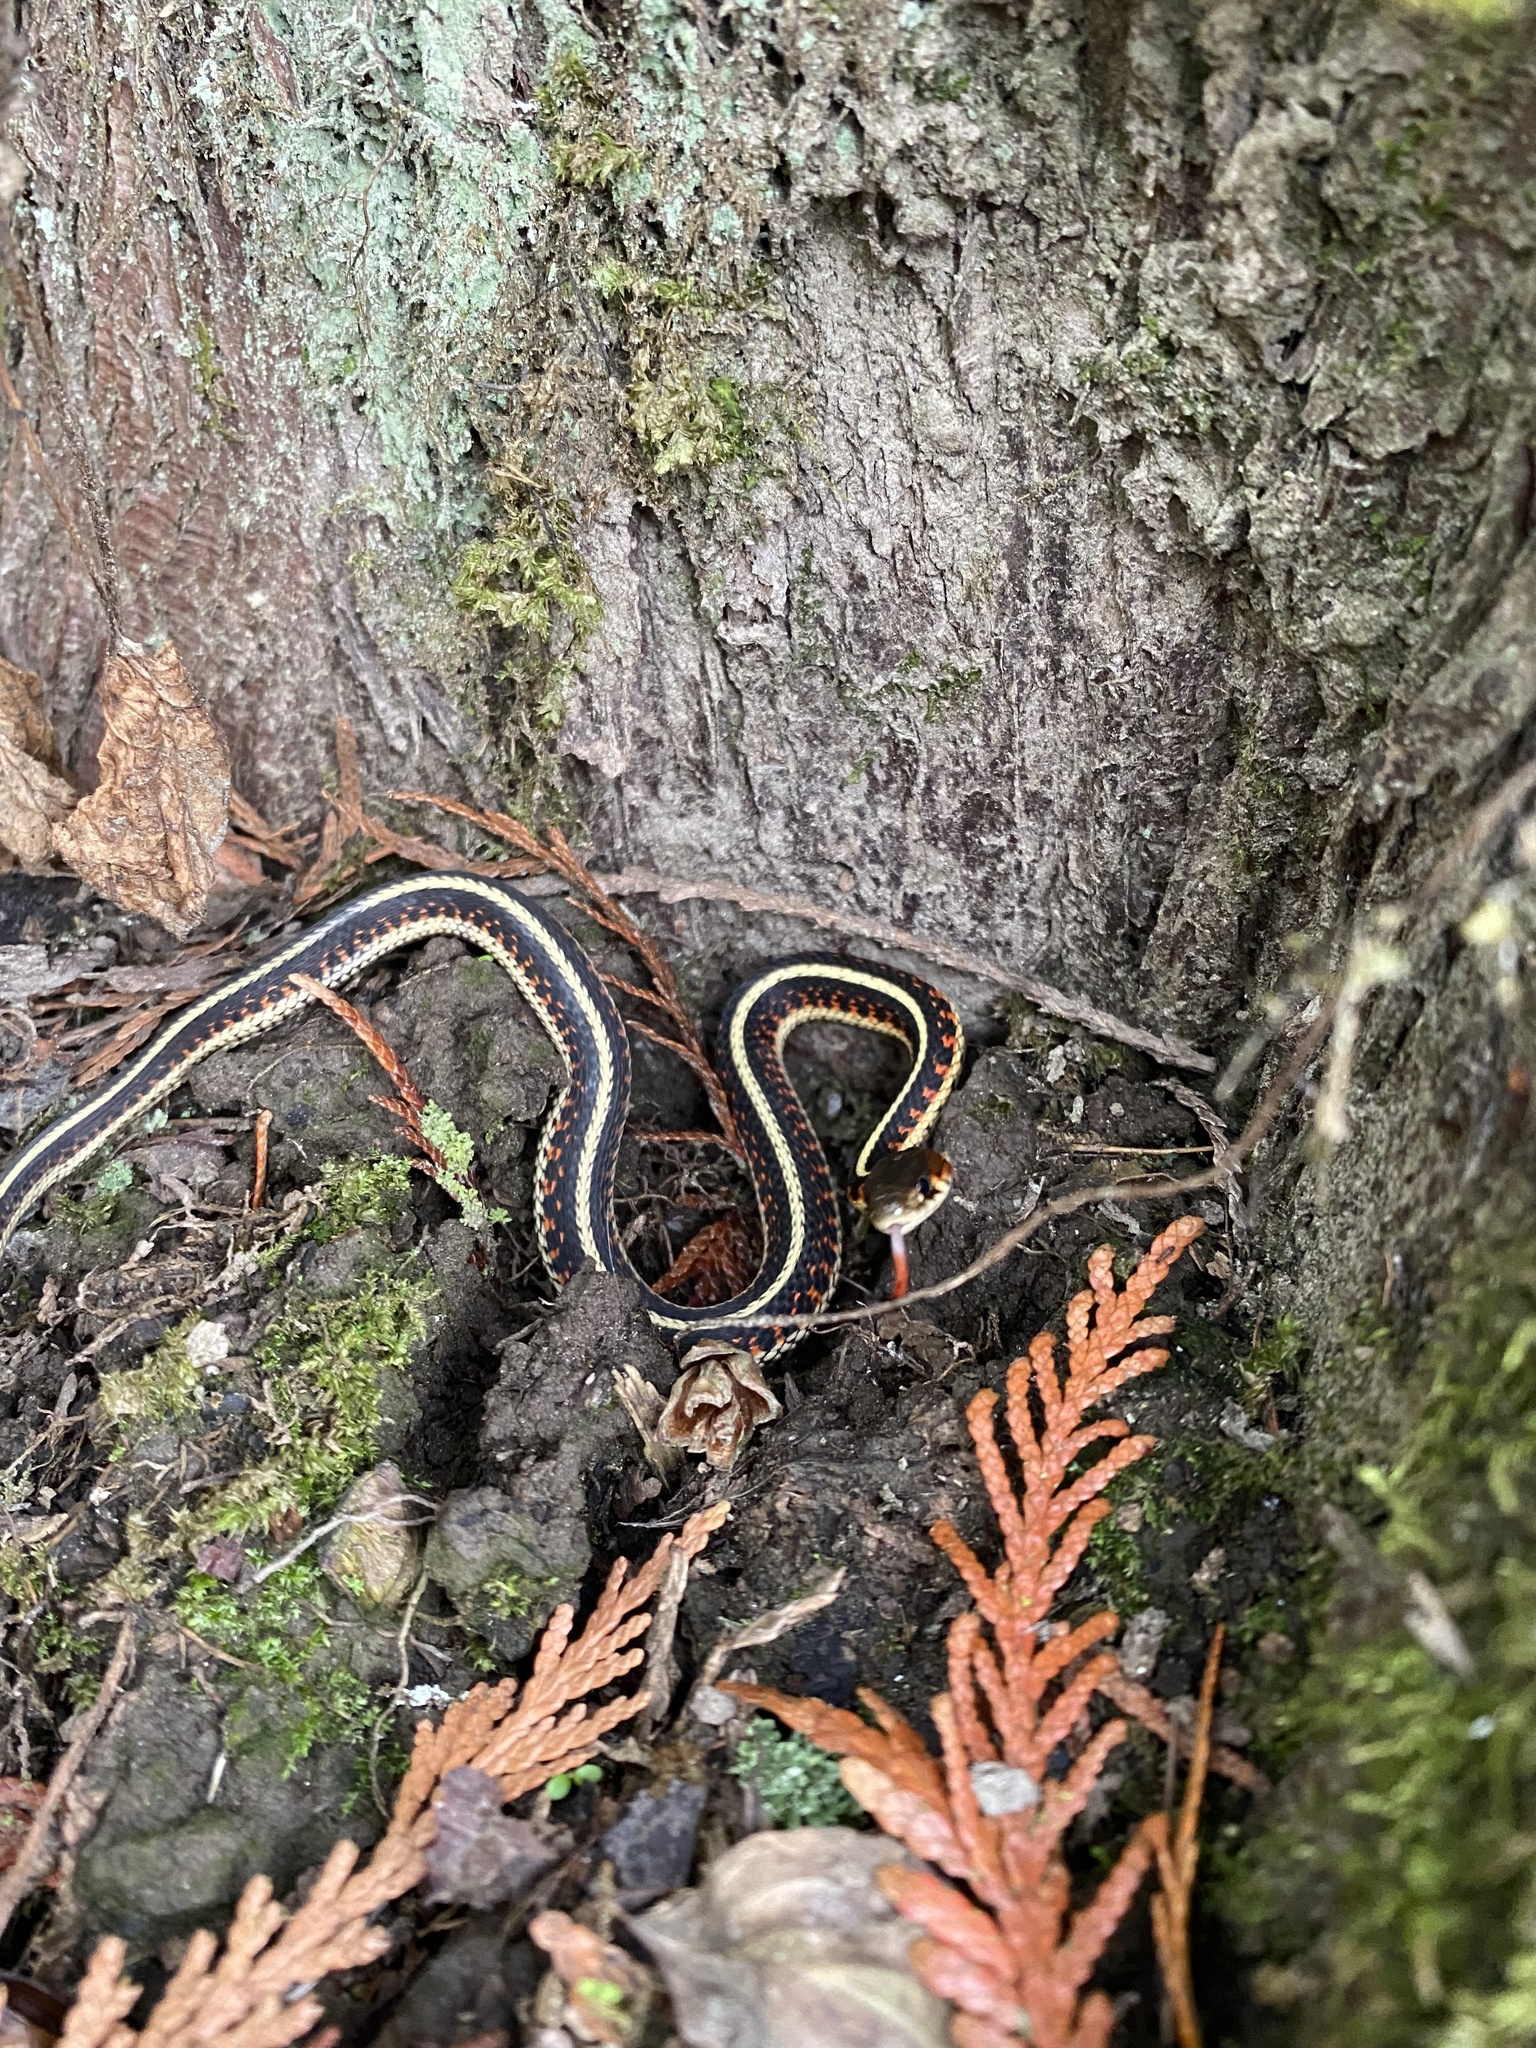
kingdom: Animalia
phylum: Chordata
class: Squamata
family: Colubridae
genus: Thamnophis
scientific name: Thamnophis sirtalis
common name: Common garter snake
